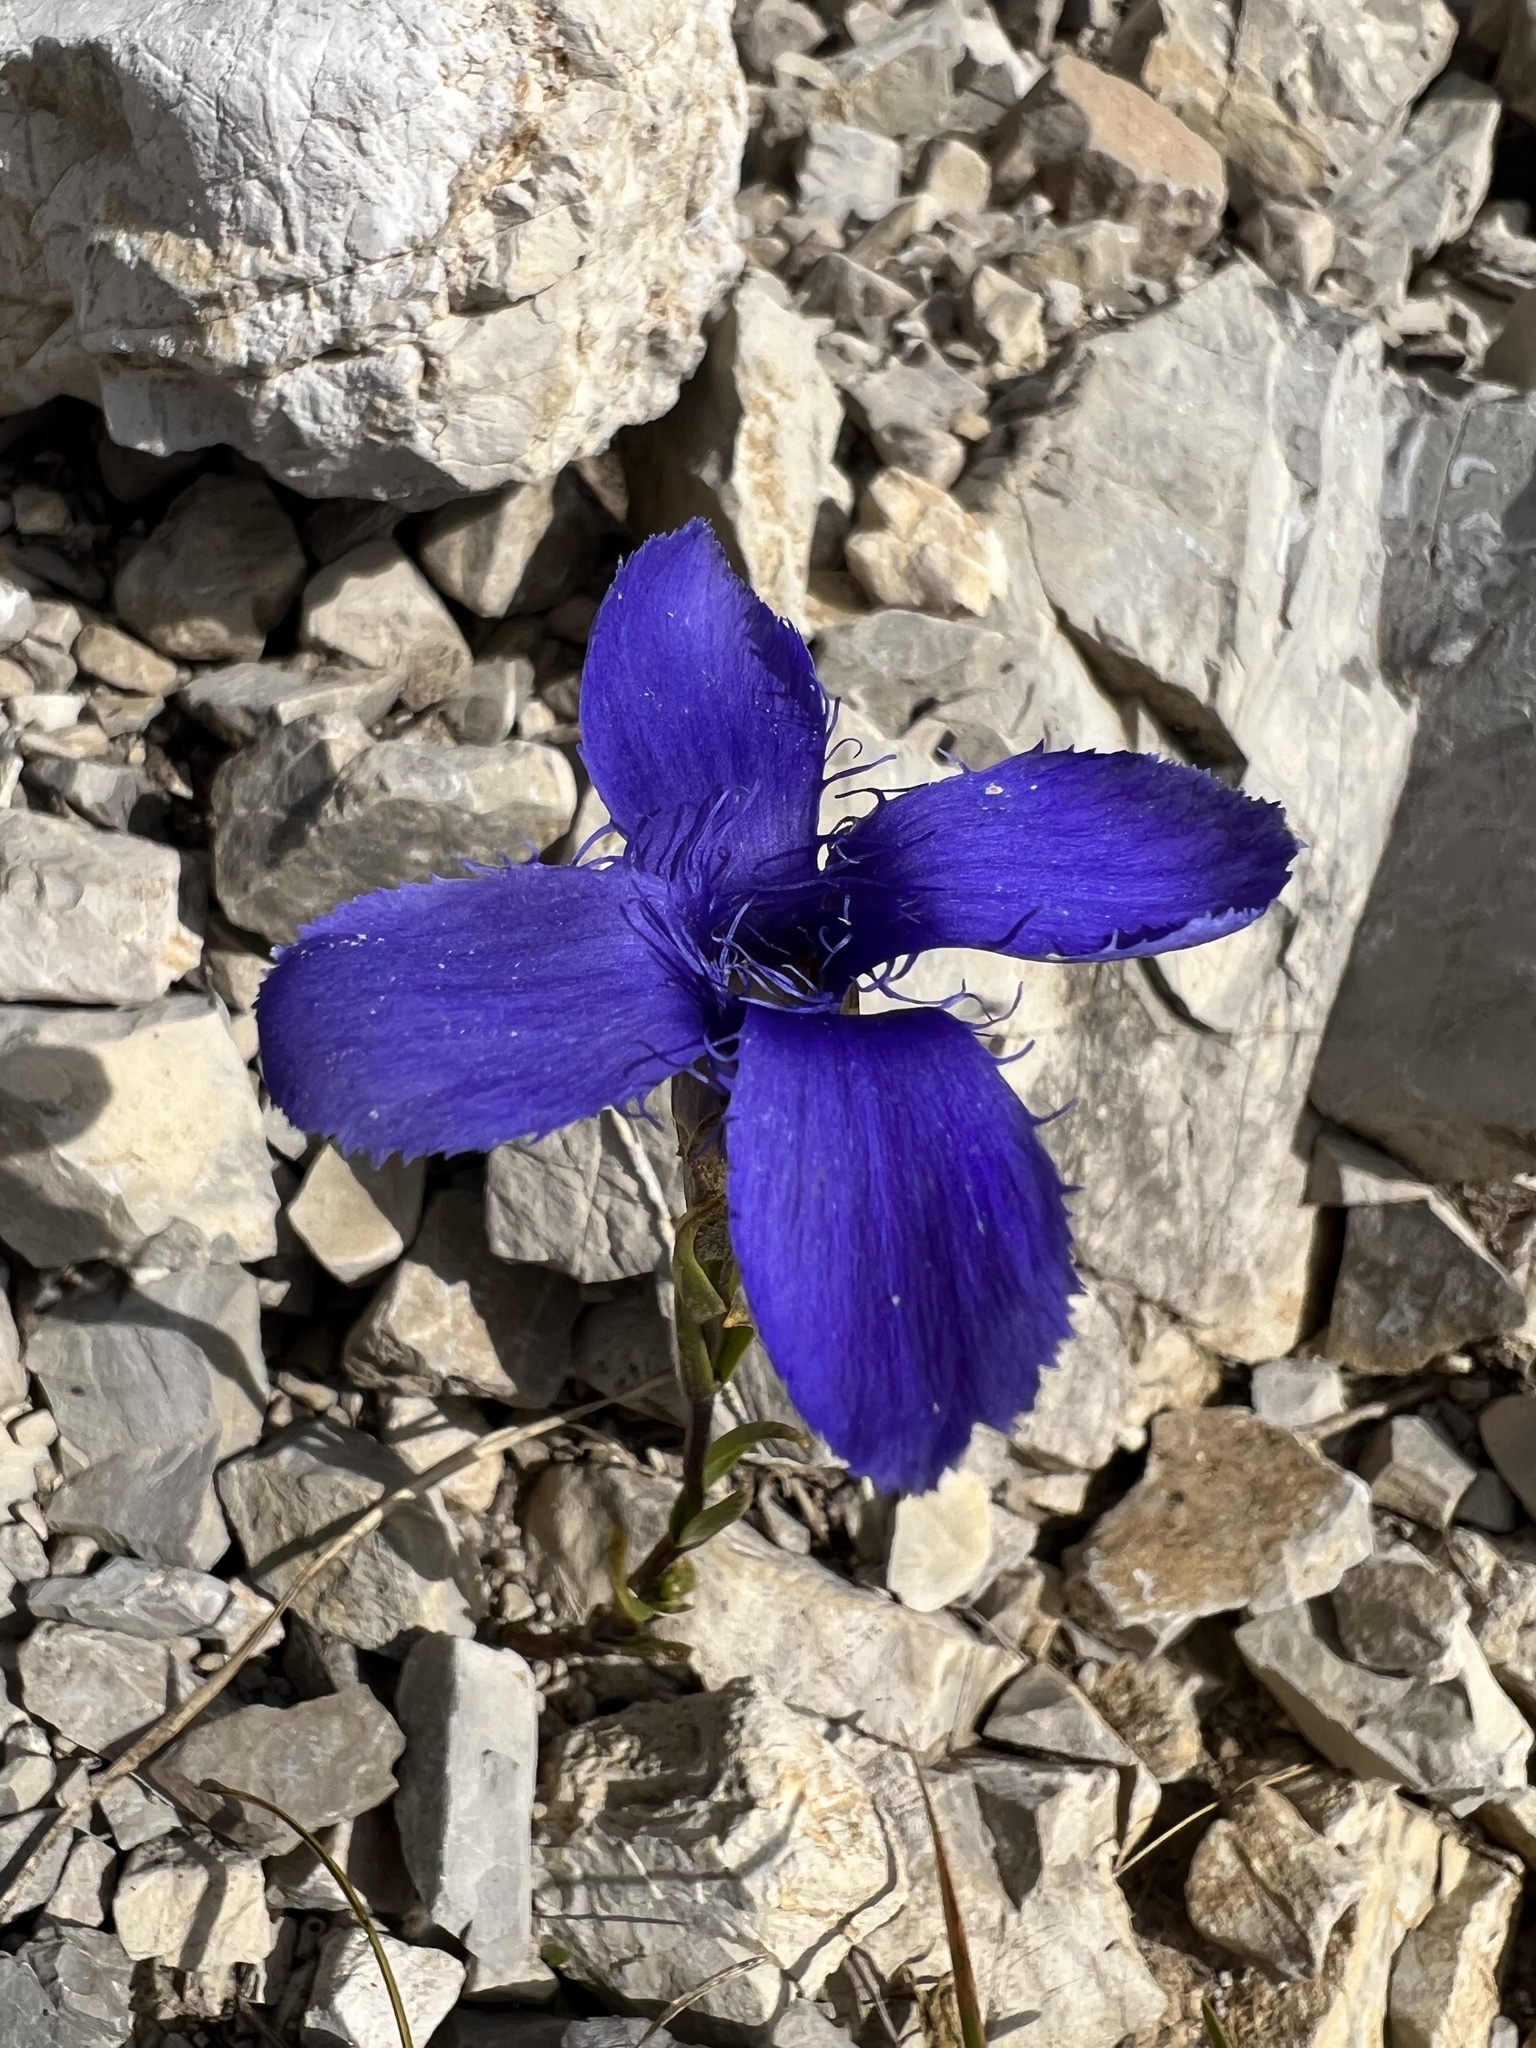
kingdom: Plantae
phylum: Tracheophyta
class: Magnoliopsida
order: Gentianales
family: Gentianaceae
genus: Gentianopsis
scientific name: Gentianopsis ciliata
